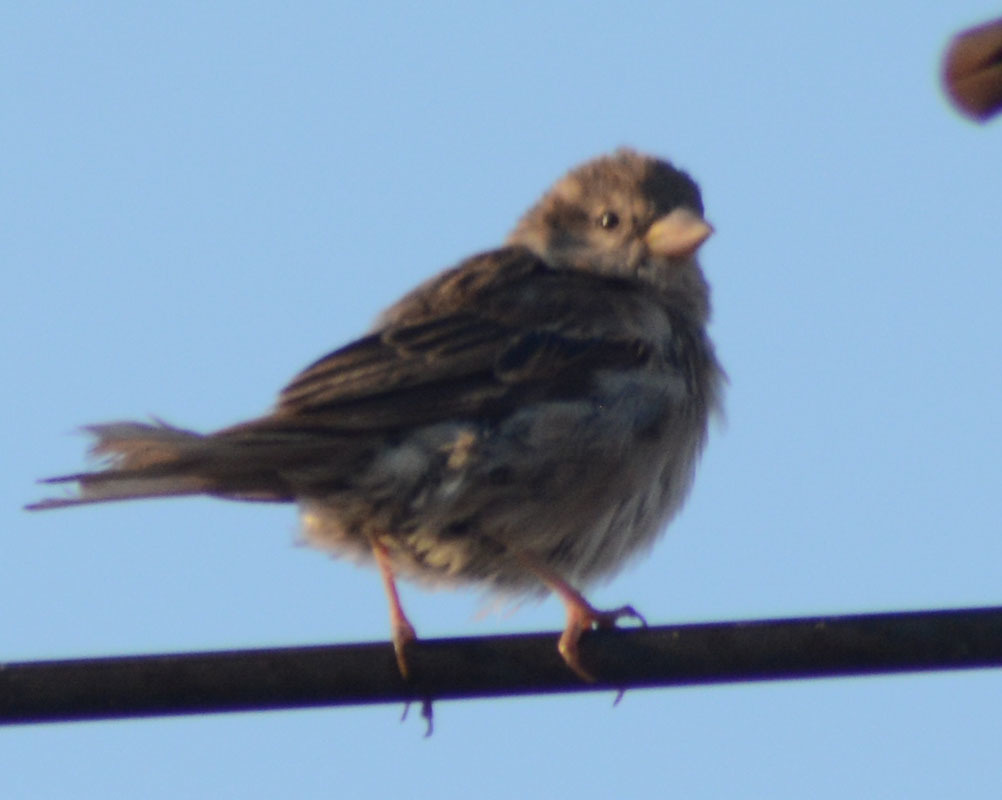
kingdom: Animalia
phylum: Chordata
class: Aves
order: Passeriformes
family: Passeridae
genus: Passer
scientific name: Passer domesticus
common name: House sparrow
